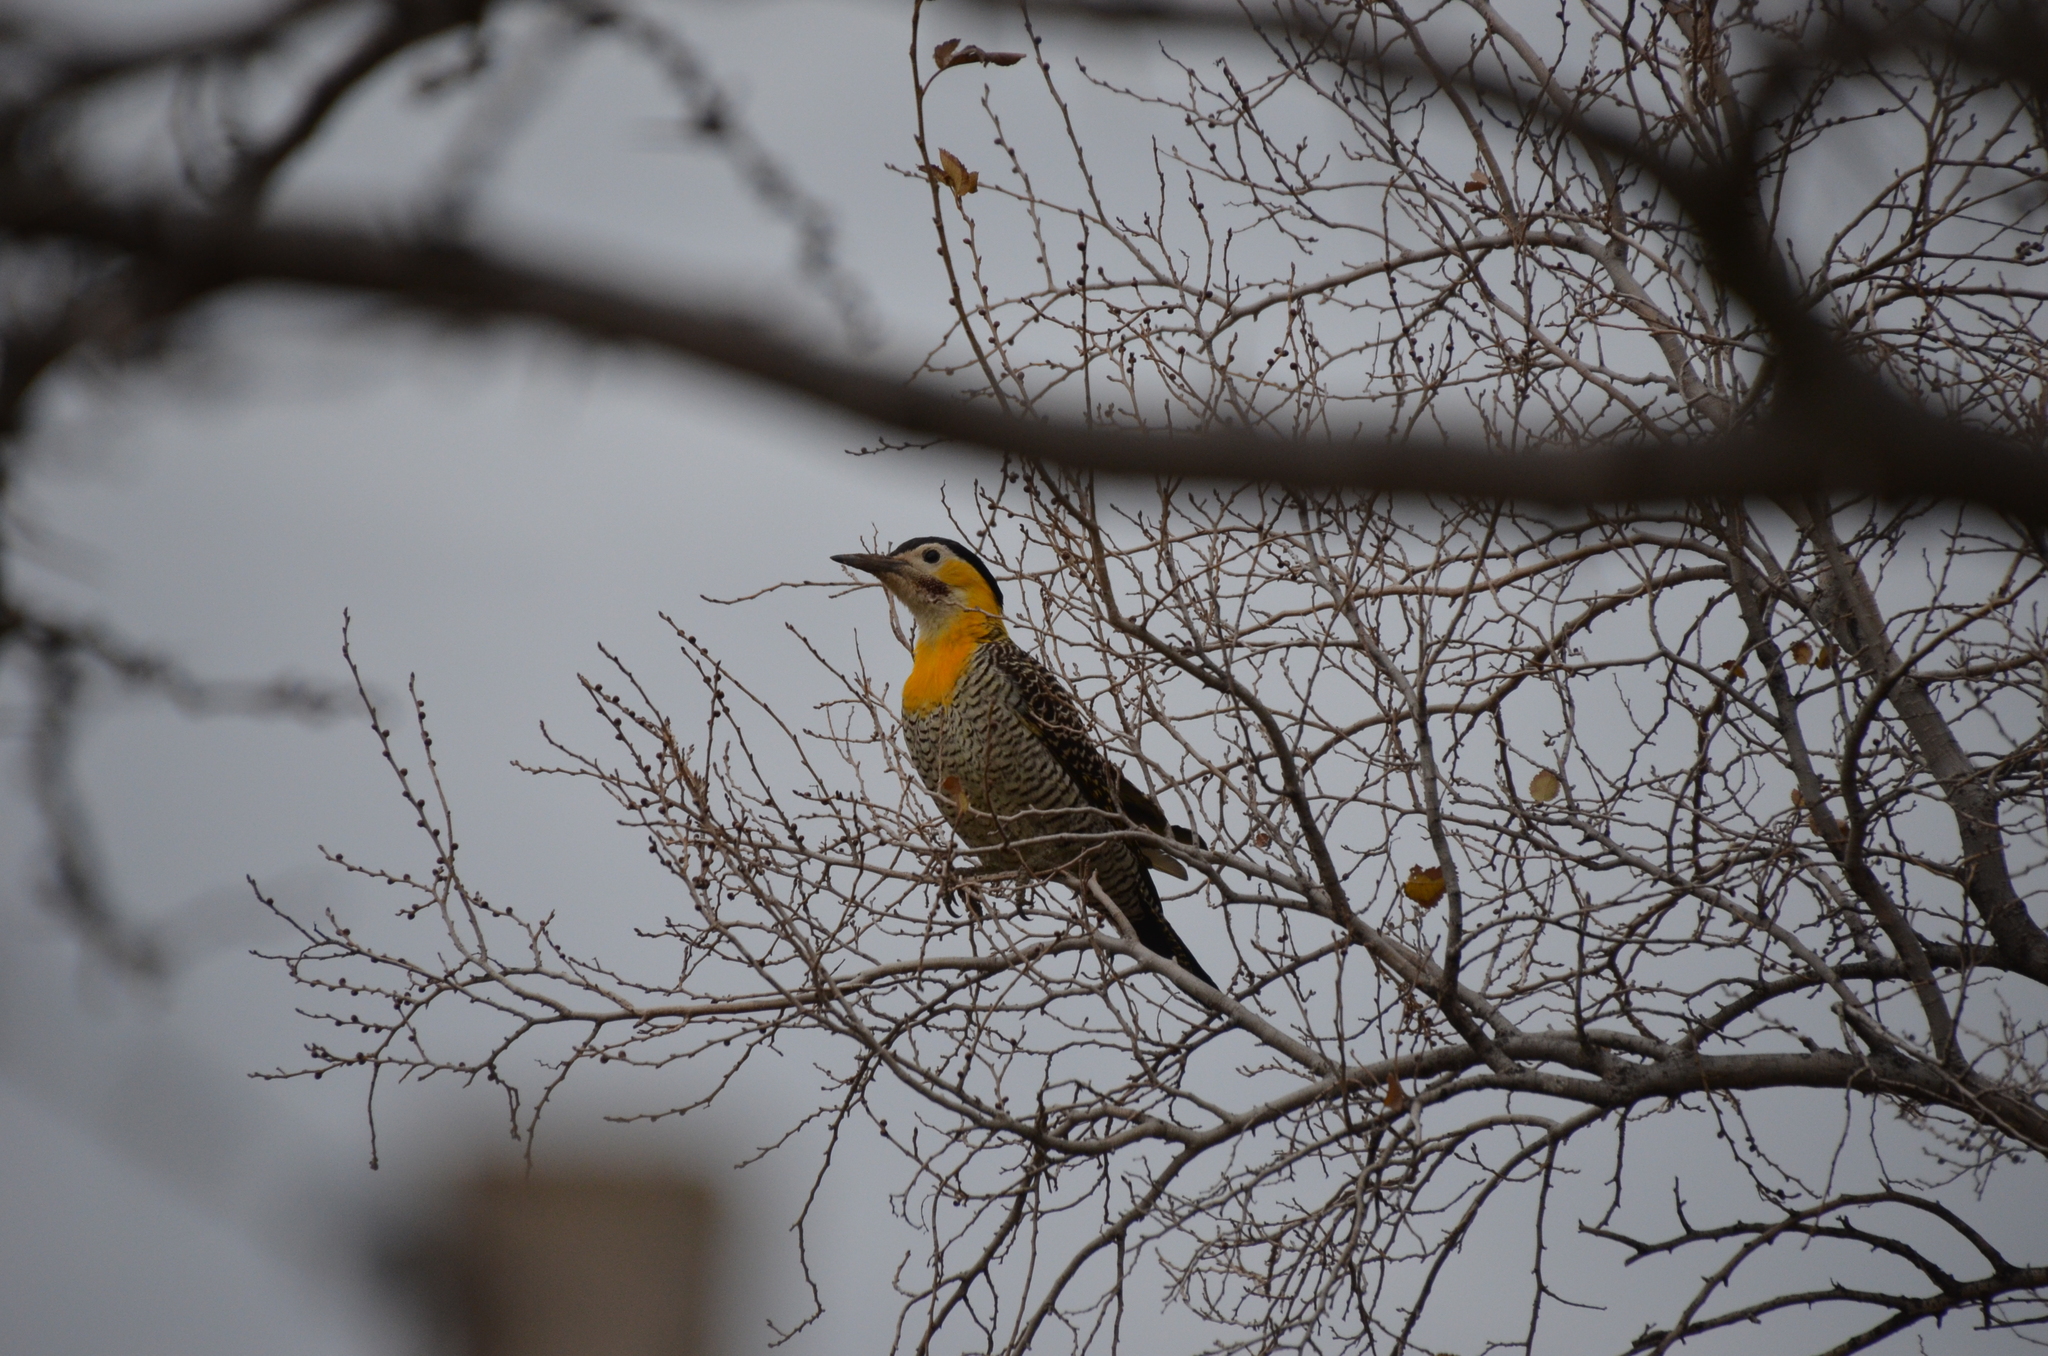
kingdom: Animalia
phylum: Chordata
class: Aves
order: Piciformes
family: Picidae
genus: Colaptes
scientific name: Colaptes campestris
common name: Campo flicker
